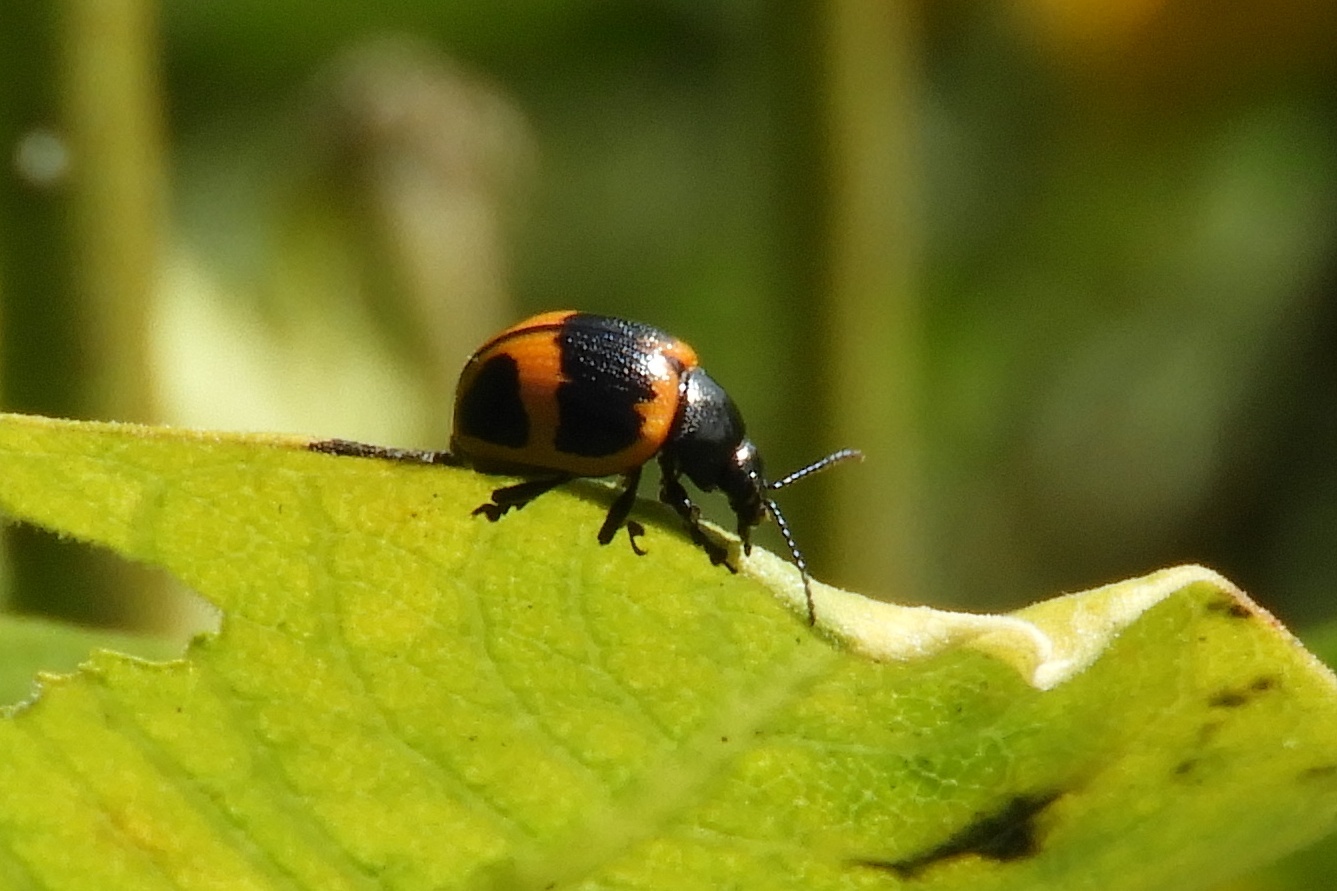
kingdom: Animalia
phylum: Arthropoda
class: Insecta
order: Coleoptera
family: Chrysomelidae
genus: Labidomera
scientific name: Labidomera clivicollis
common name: Swamp milkweed leaf beetle
